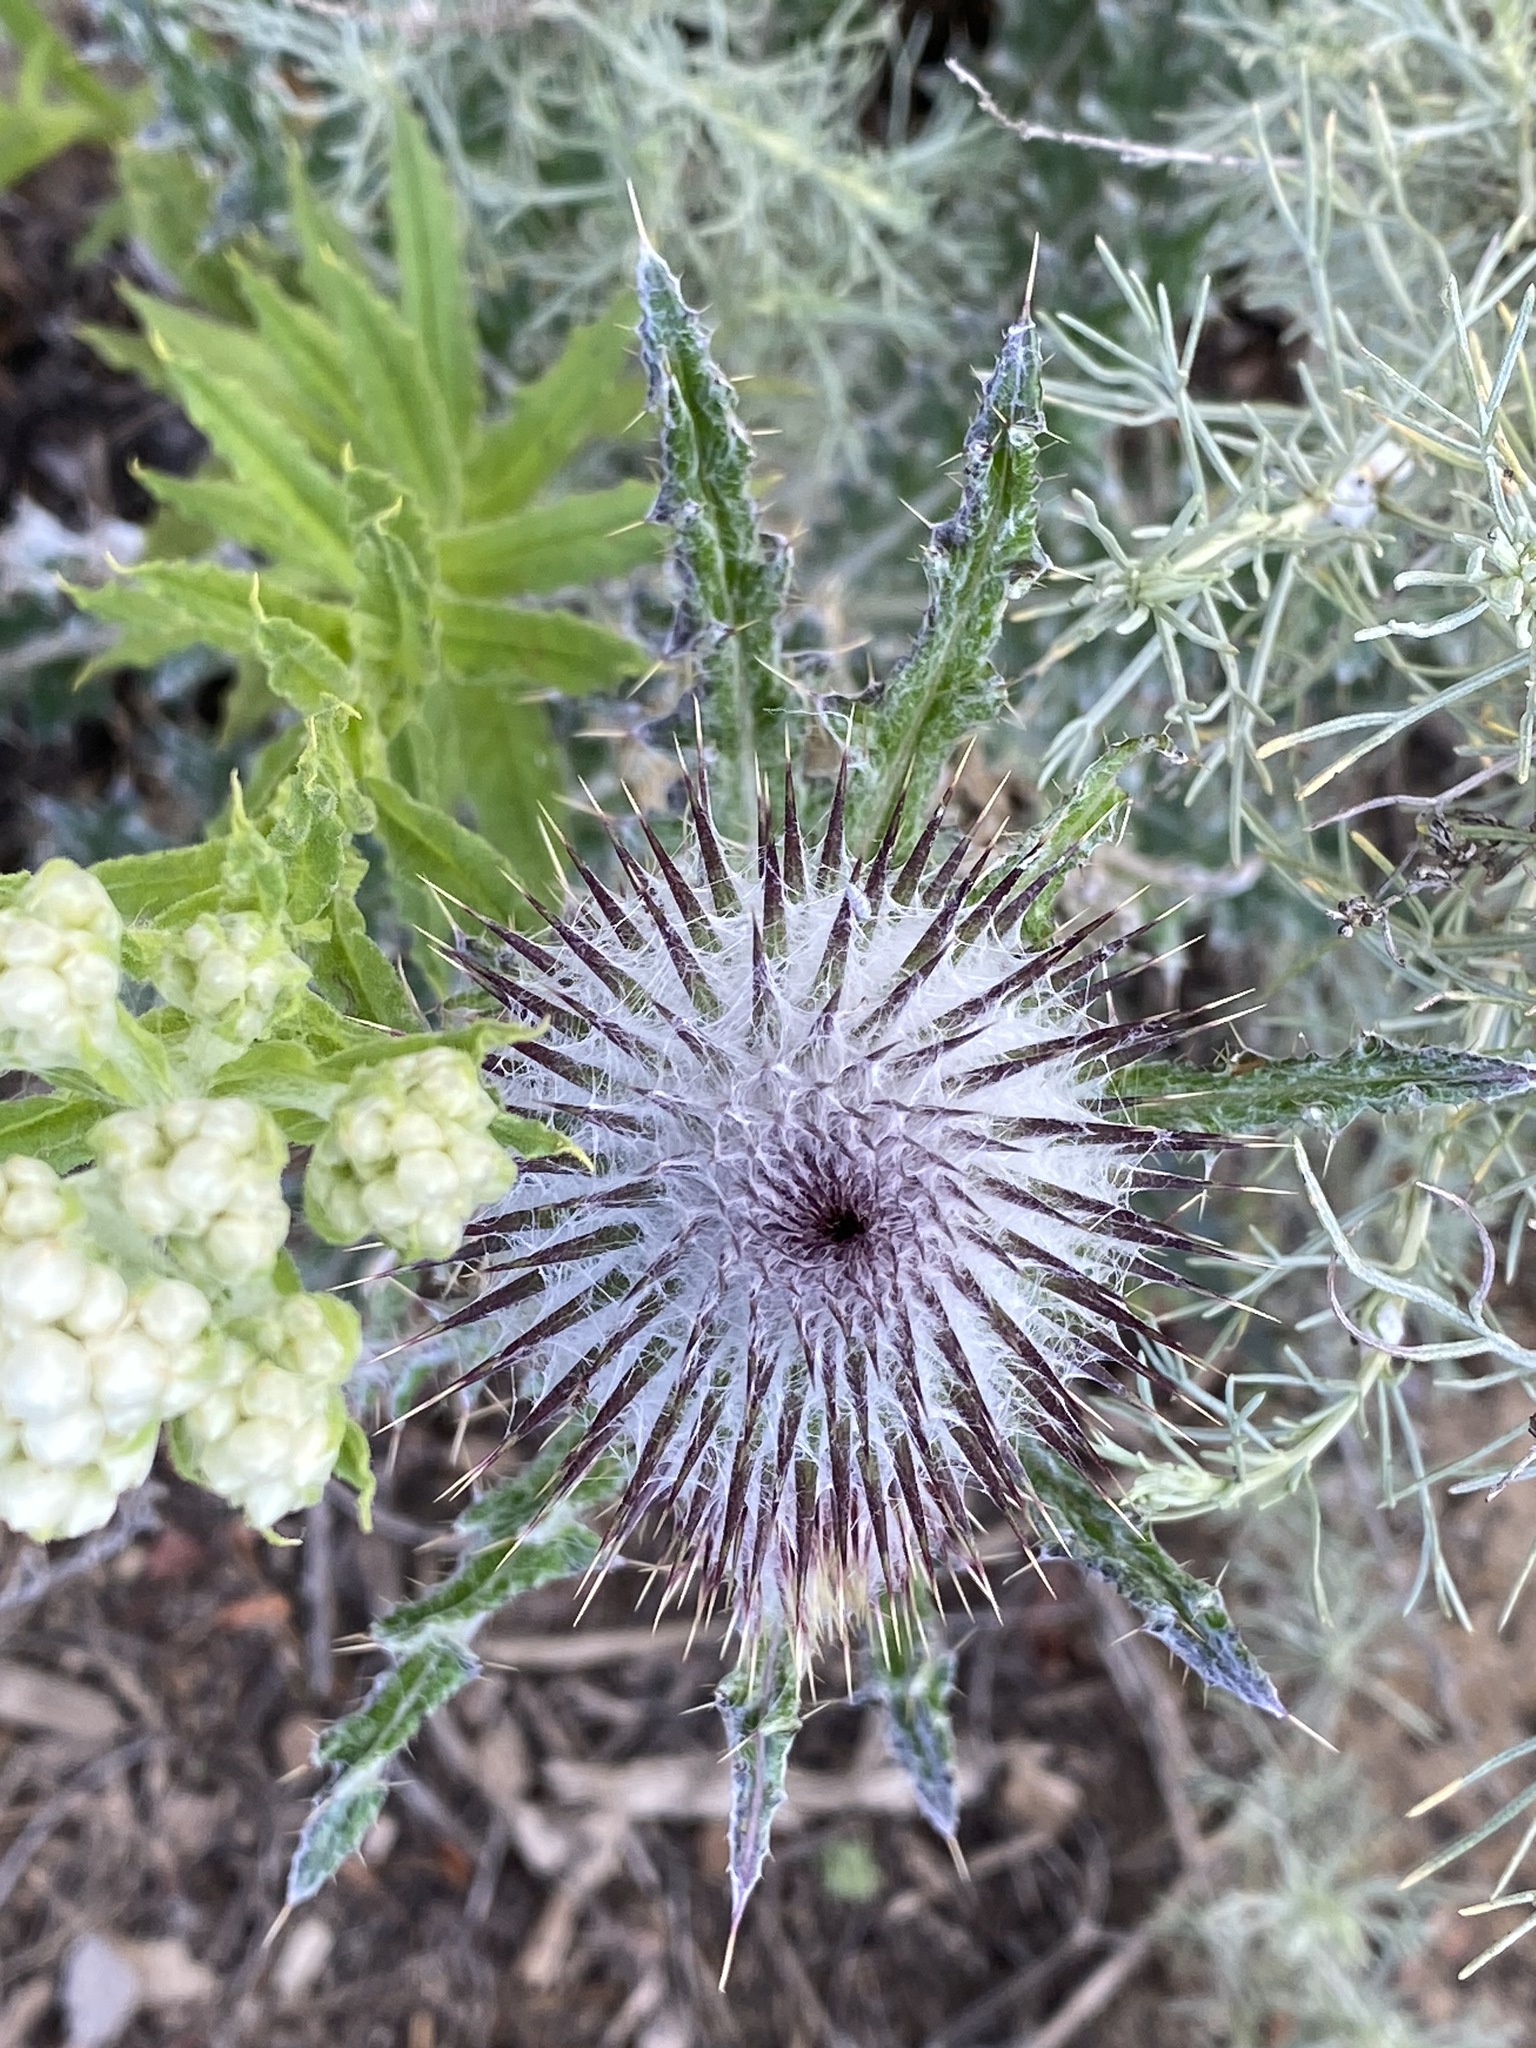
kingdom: Plantae
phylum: Tracheophyta
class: Magnoliopsida
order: Asterales
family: Asteraceae
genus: Cirsium
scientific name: Cirsium occidentale
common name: Western thistle
